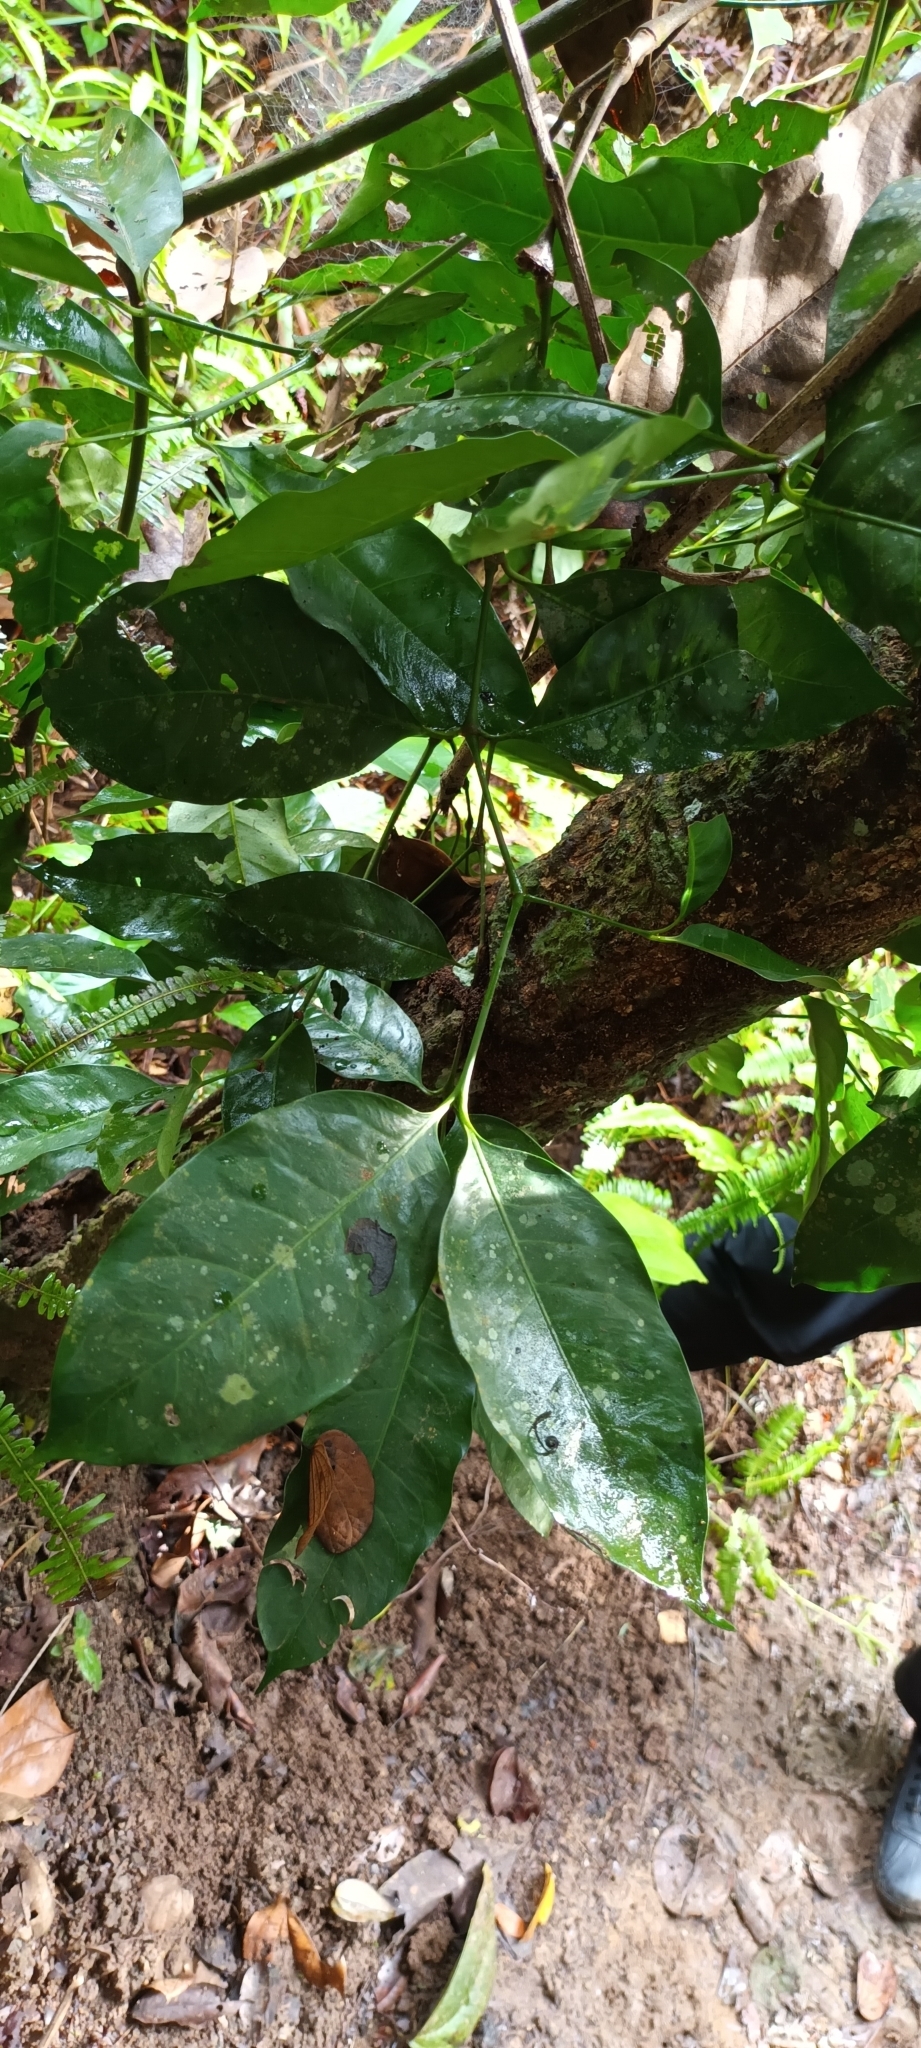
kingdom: Plantae
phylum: Tracheophyta
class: Gnetopsida
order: Gnetales
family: Gnetaceae
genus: Gnetum
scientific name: Gnetum gnemon
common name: Spanish joint-fir
